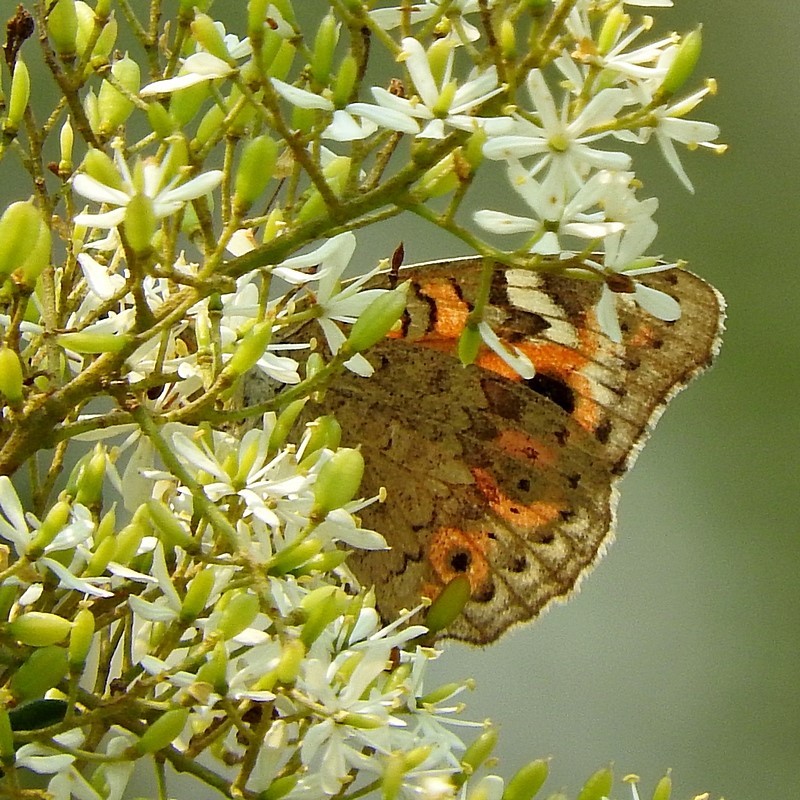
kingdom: Animalia
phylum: Arthropoda
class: Insecta
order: Lepidoptera
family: Nymphalidae
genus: Junonia
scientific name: Junonia villida
